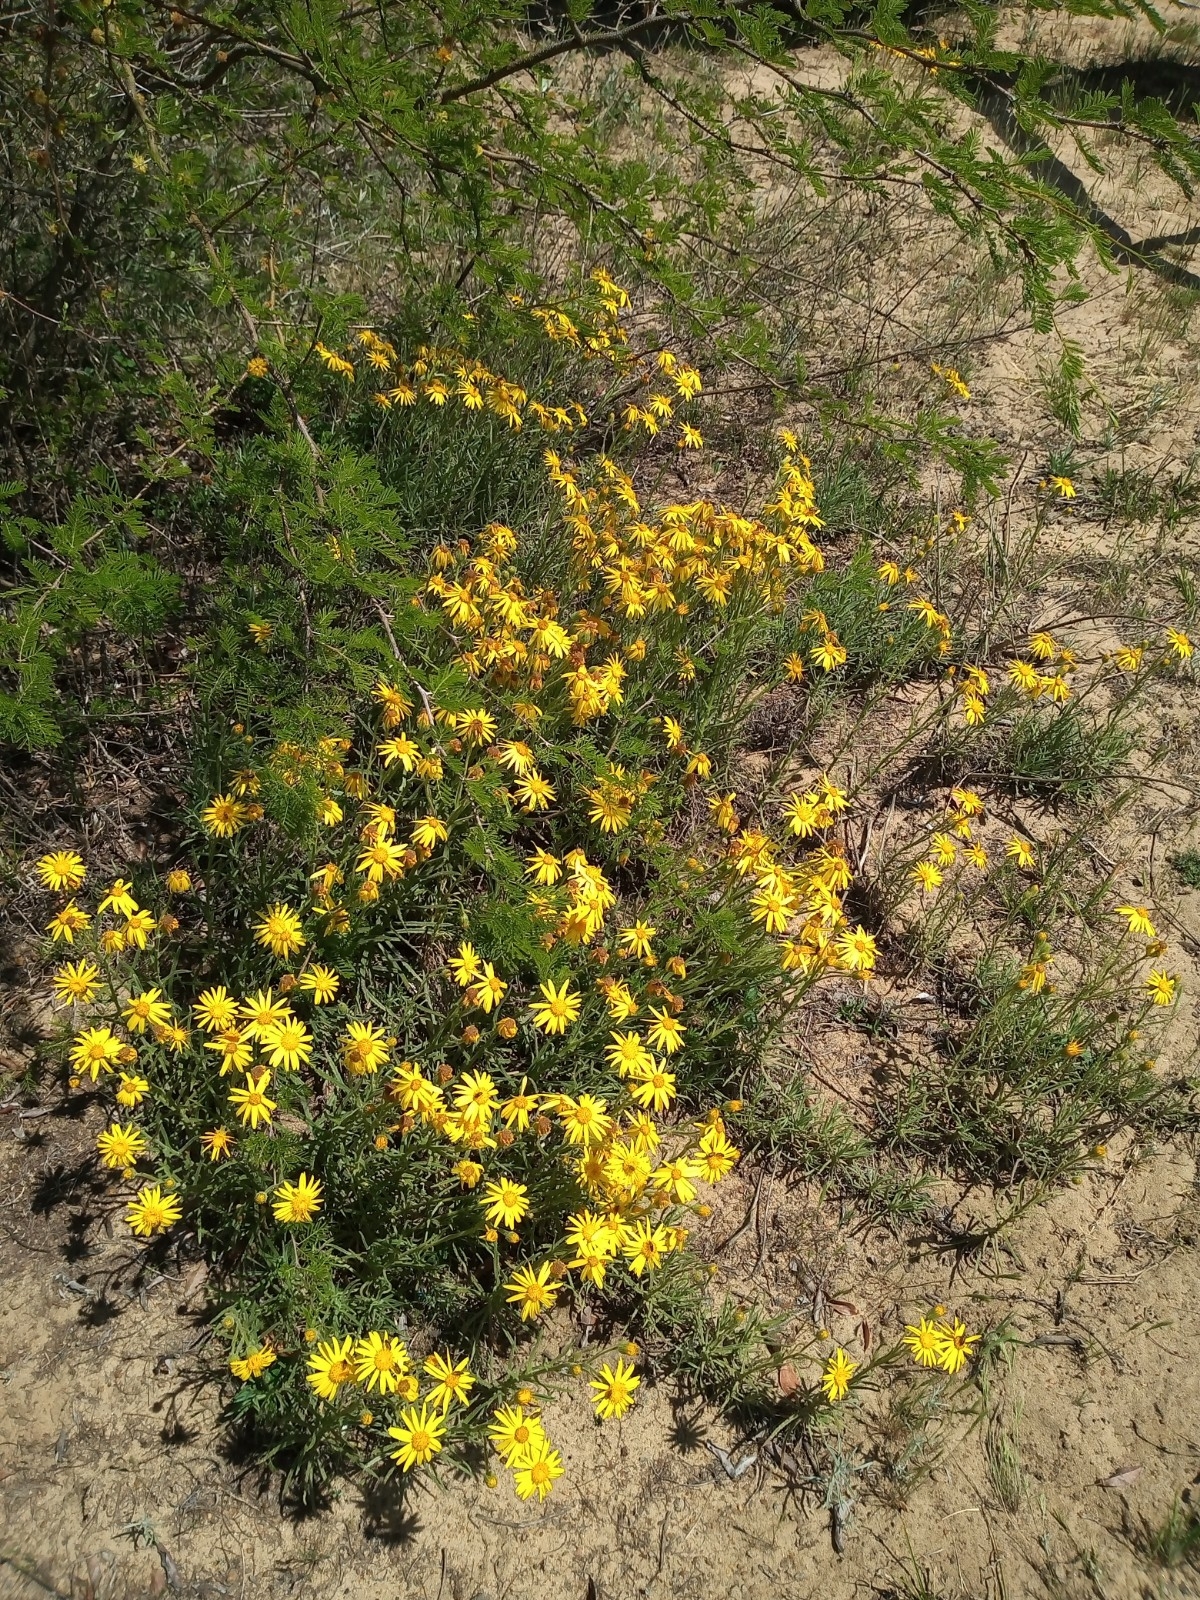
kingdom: Plantae
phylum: Tracheophyta
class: Magnoliopsida
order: Asterales
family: Asteraceae
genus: Senecio
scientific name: Senecio pterophorus
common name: Shoddy ragwort
